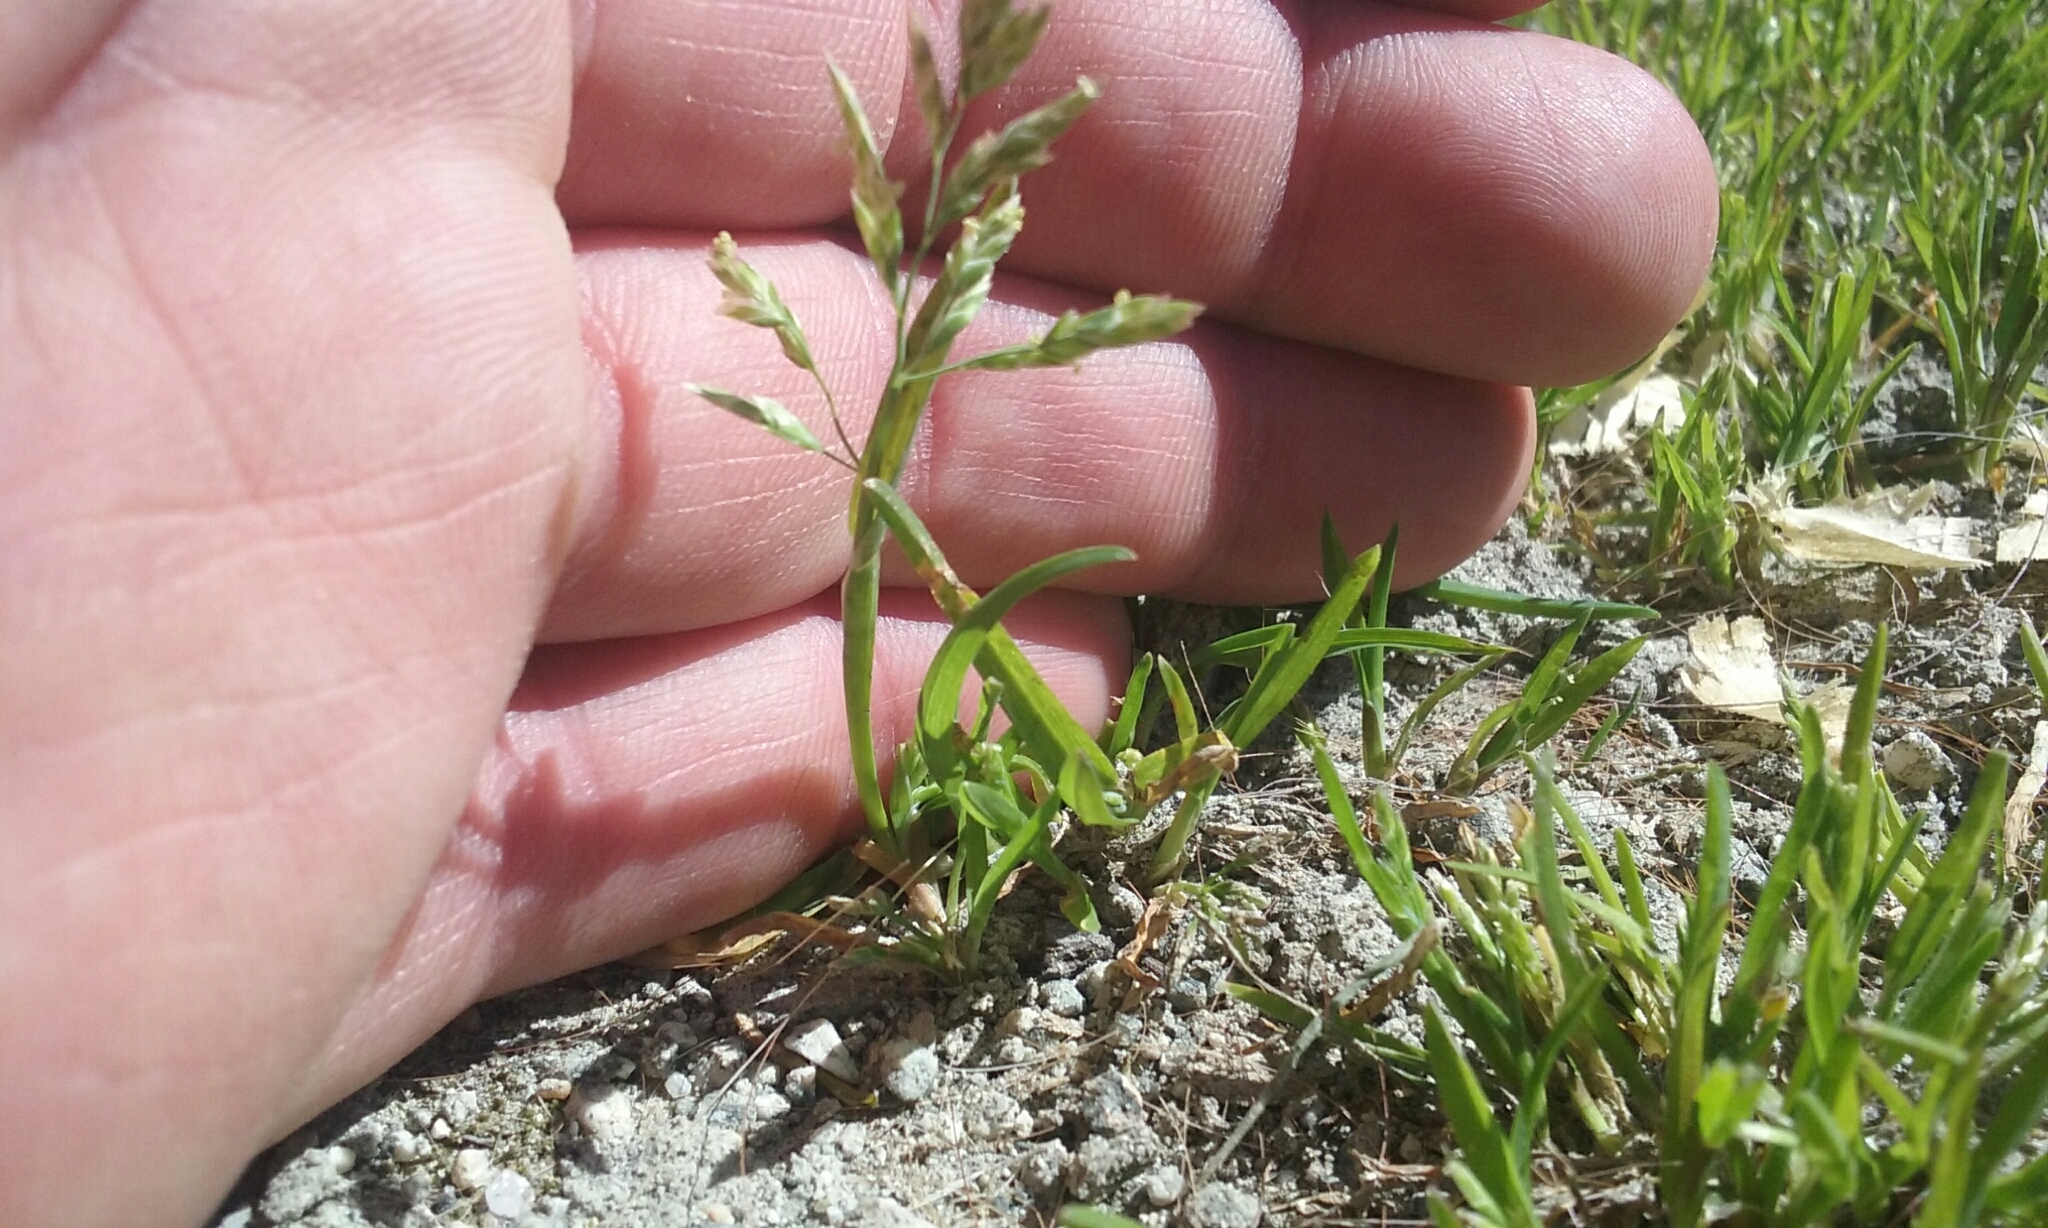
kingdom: Plantae
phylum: Tracheophyta
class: Liliopsida
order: Poales
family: Poaceae
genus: Poa
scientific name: Poa annua
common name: Annual bluegrass
